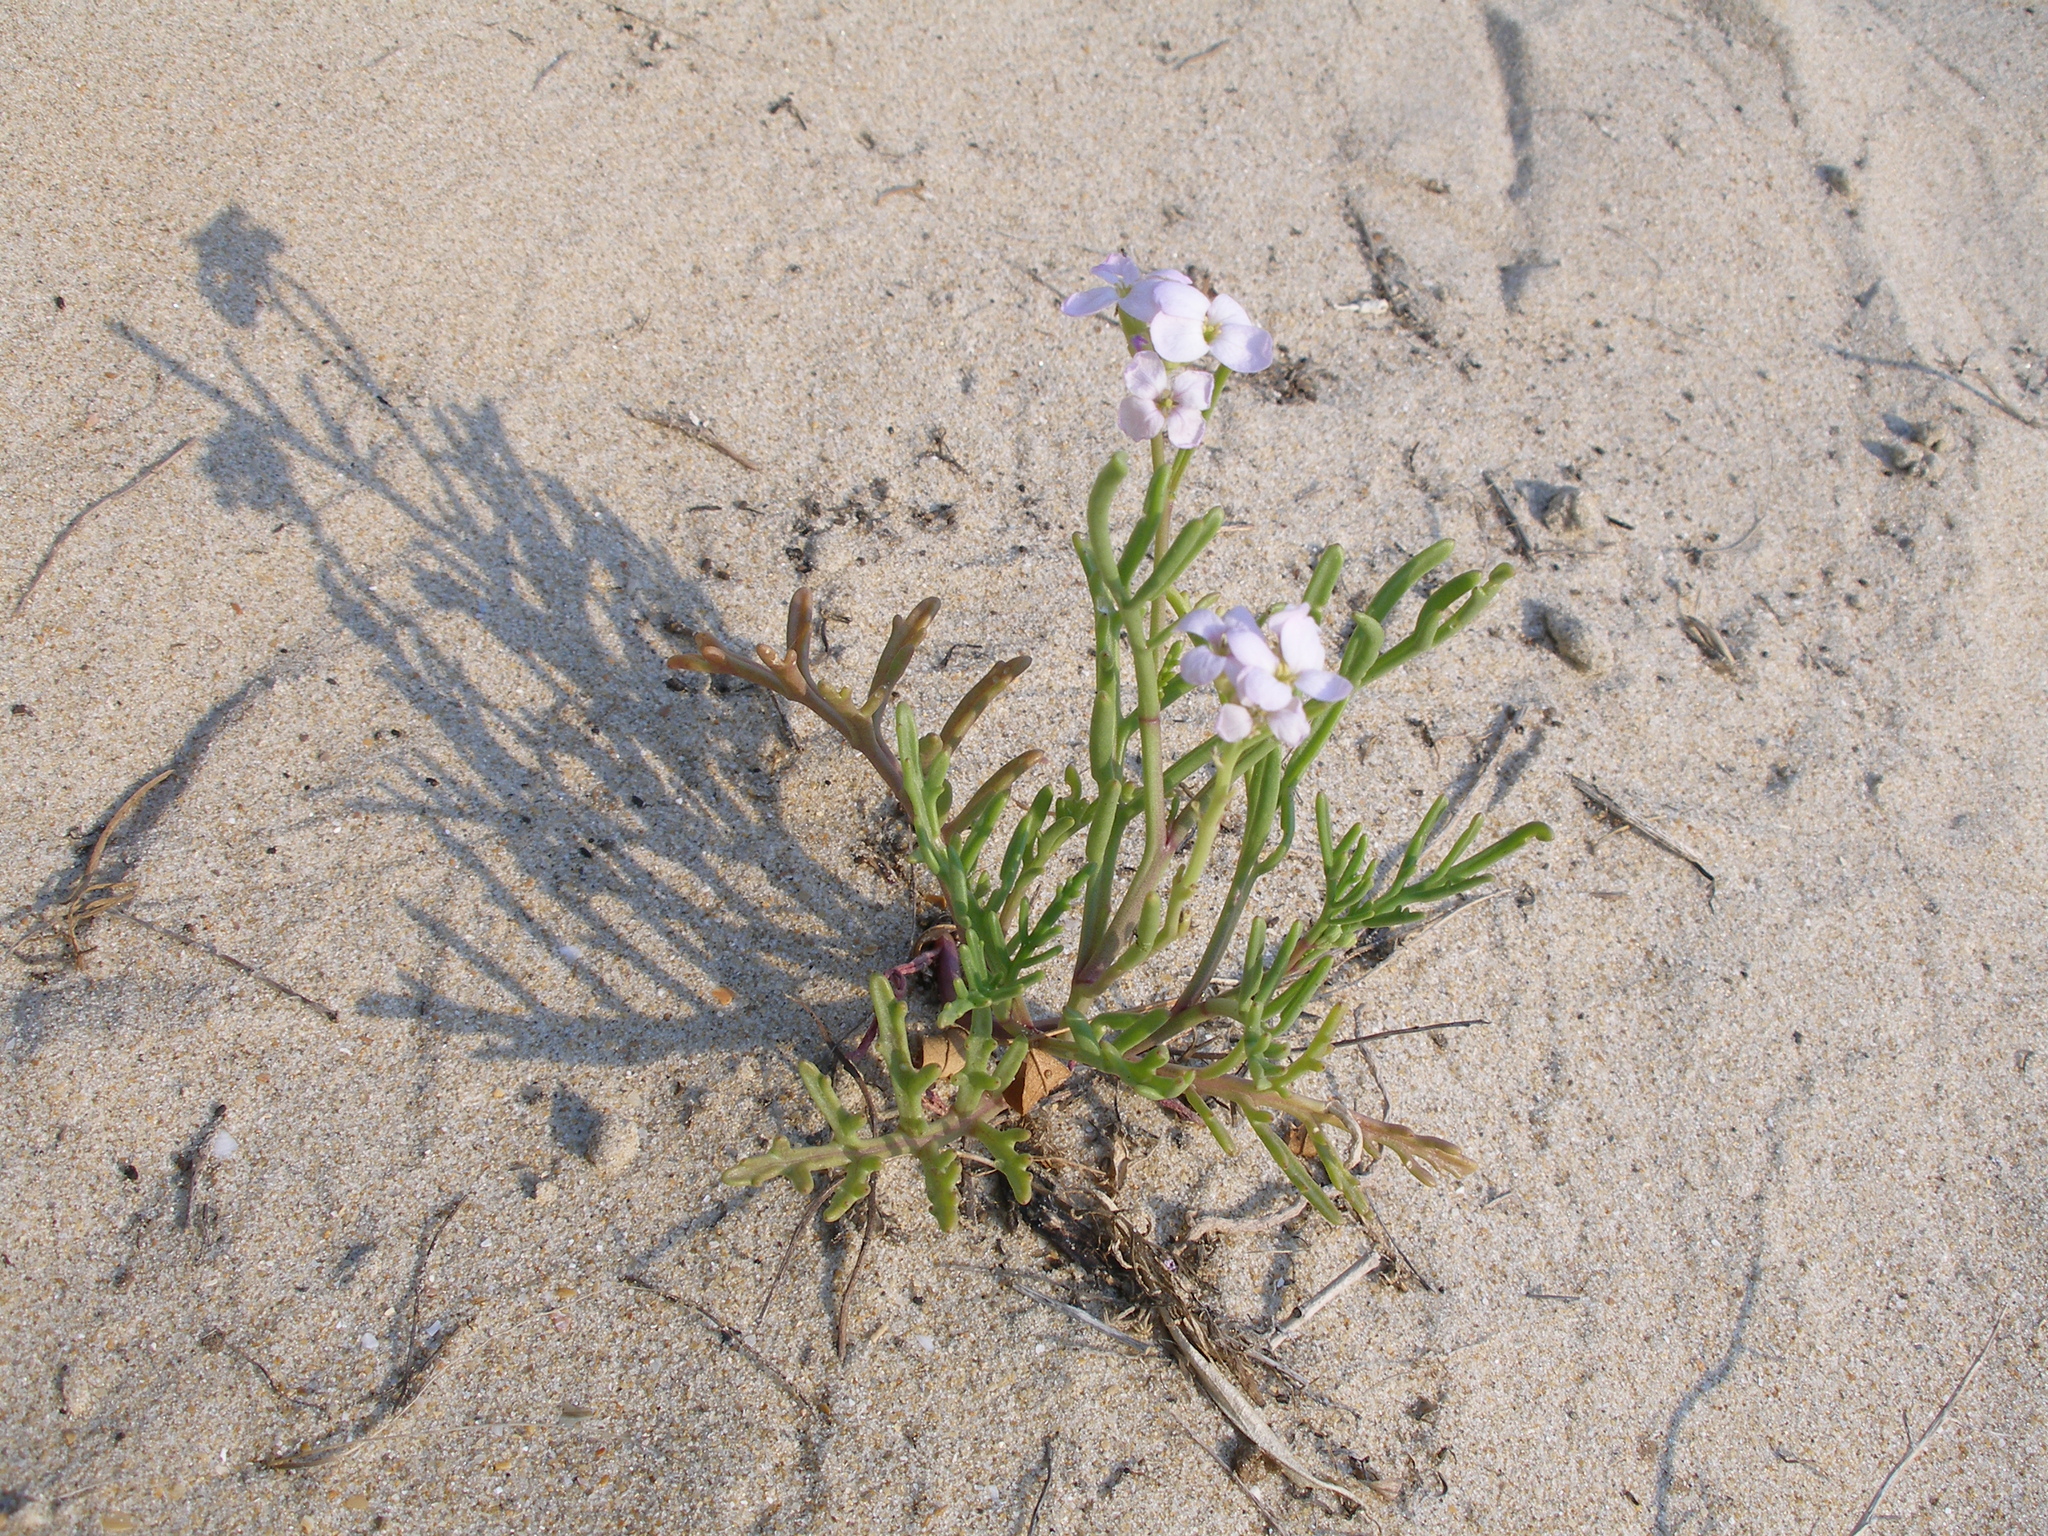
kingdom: Plantae
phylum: Tracheophyta
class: Magnoliopsida
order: Brassicales
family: Brassicaceae
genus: Cakile
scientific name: Cakile maritima
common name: Sea rocket
